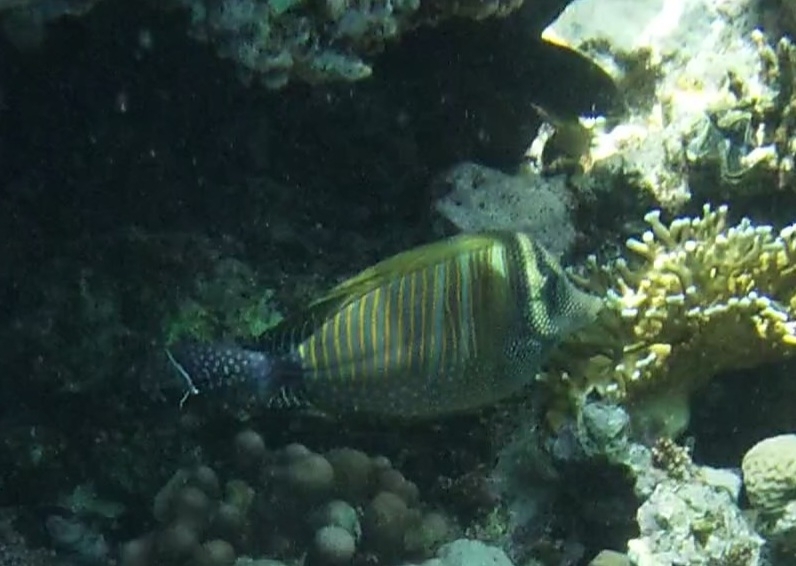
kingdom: Animalia
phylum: Chordata
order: Perciformes
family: Acanthuridae
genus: Zebrasoma
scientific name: Zebrasoma desjardinii
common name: Desjardin's sailfin tang
